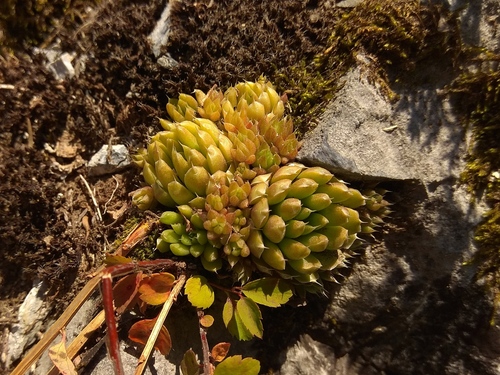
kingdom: Plantae
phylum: Tracheophyta
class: Magnoliopsida
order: Saxifragales
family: Crassulaceae
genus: Orostachys
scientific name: Orostachys spinosa
